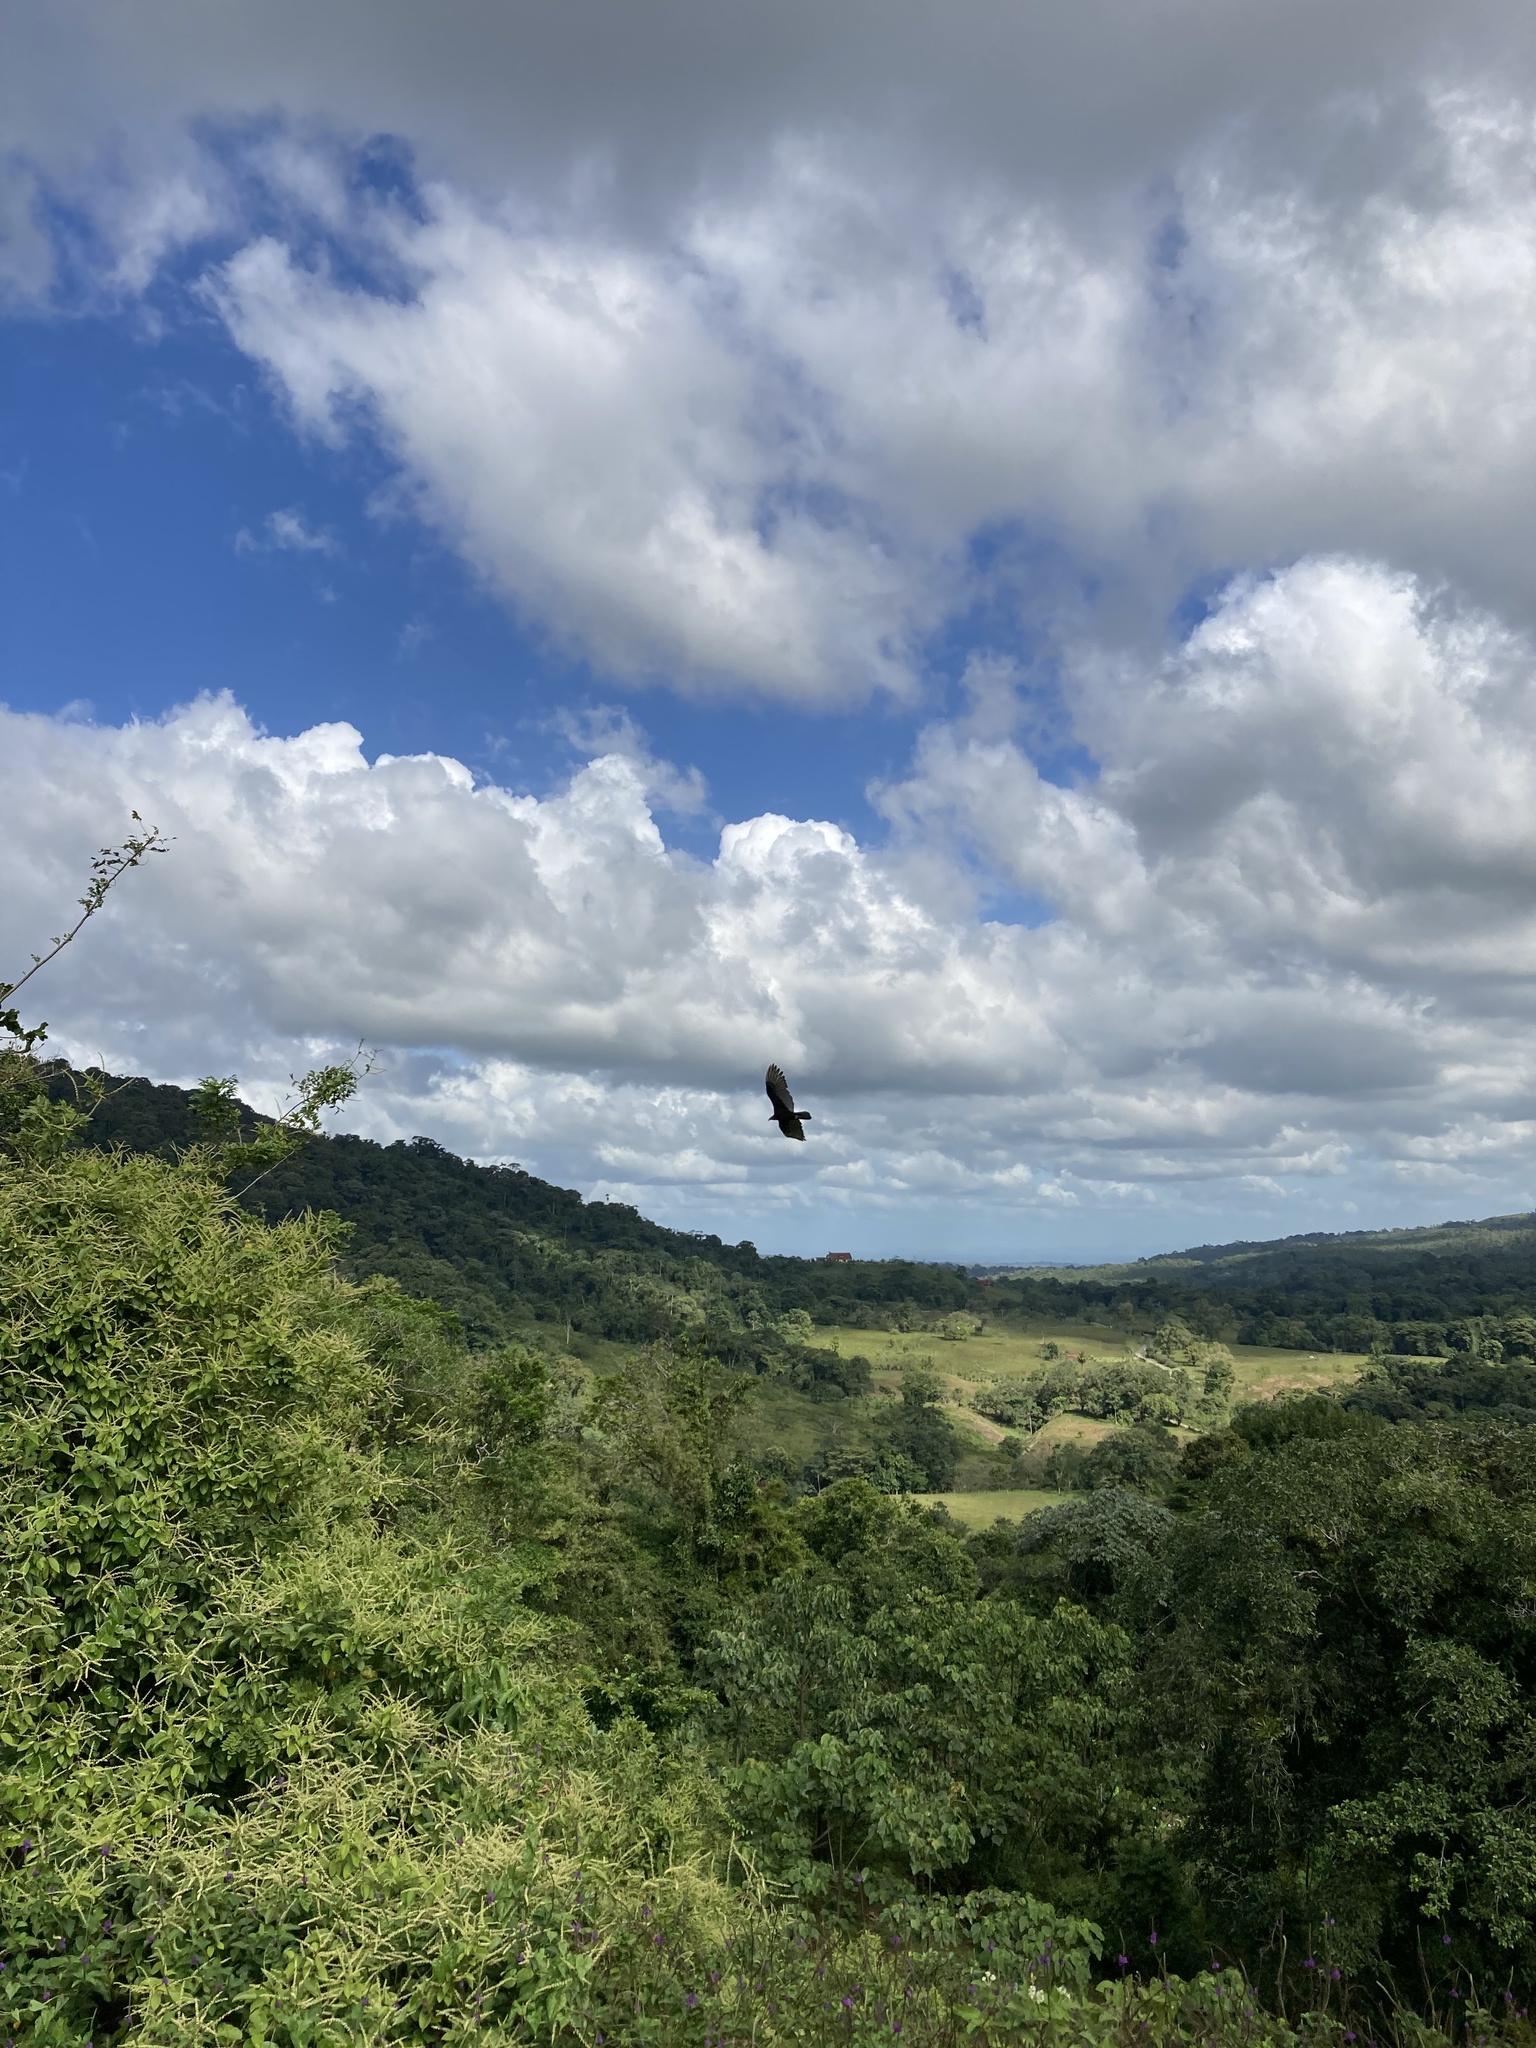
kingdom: Animalia
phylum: Chordata
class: Aves
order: Accipitriformes
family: Cathartidae
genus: Cathartes
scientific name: Cathartes aura
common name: Turkey vulture
